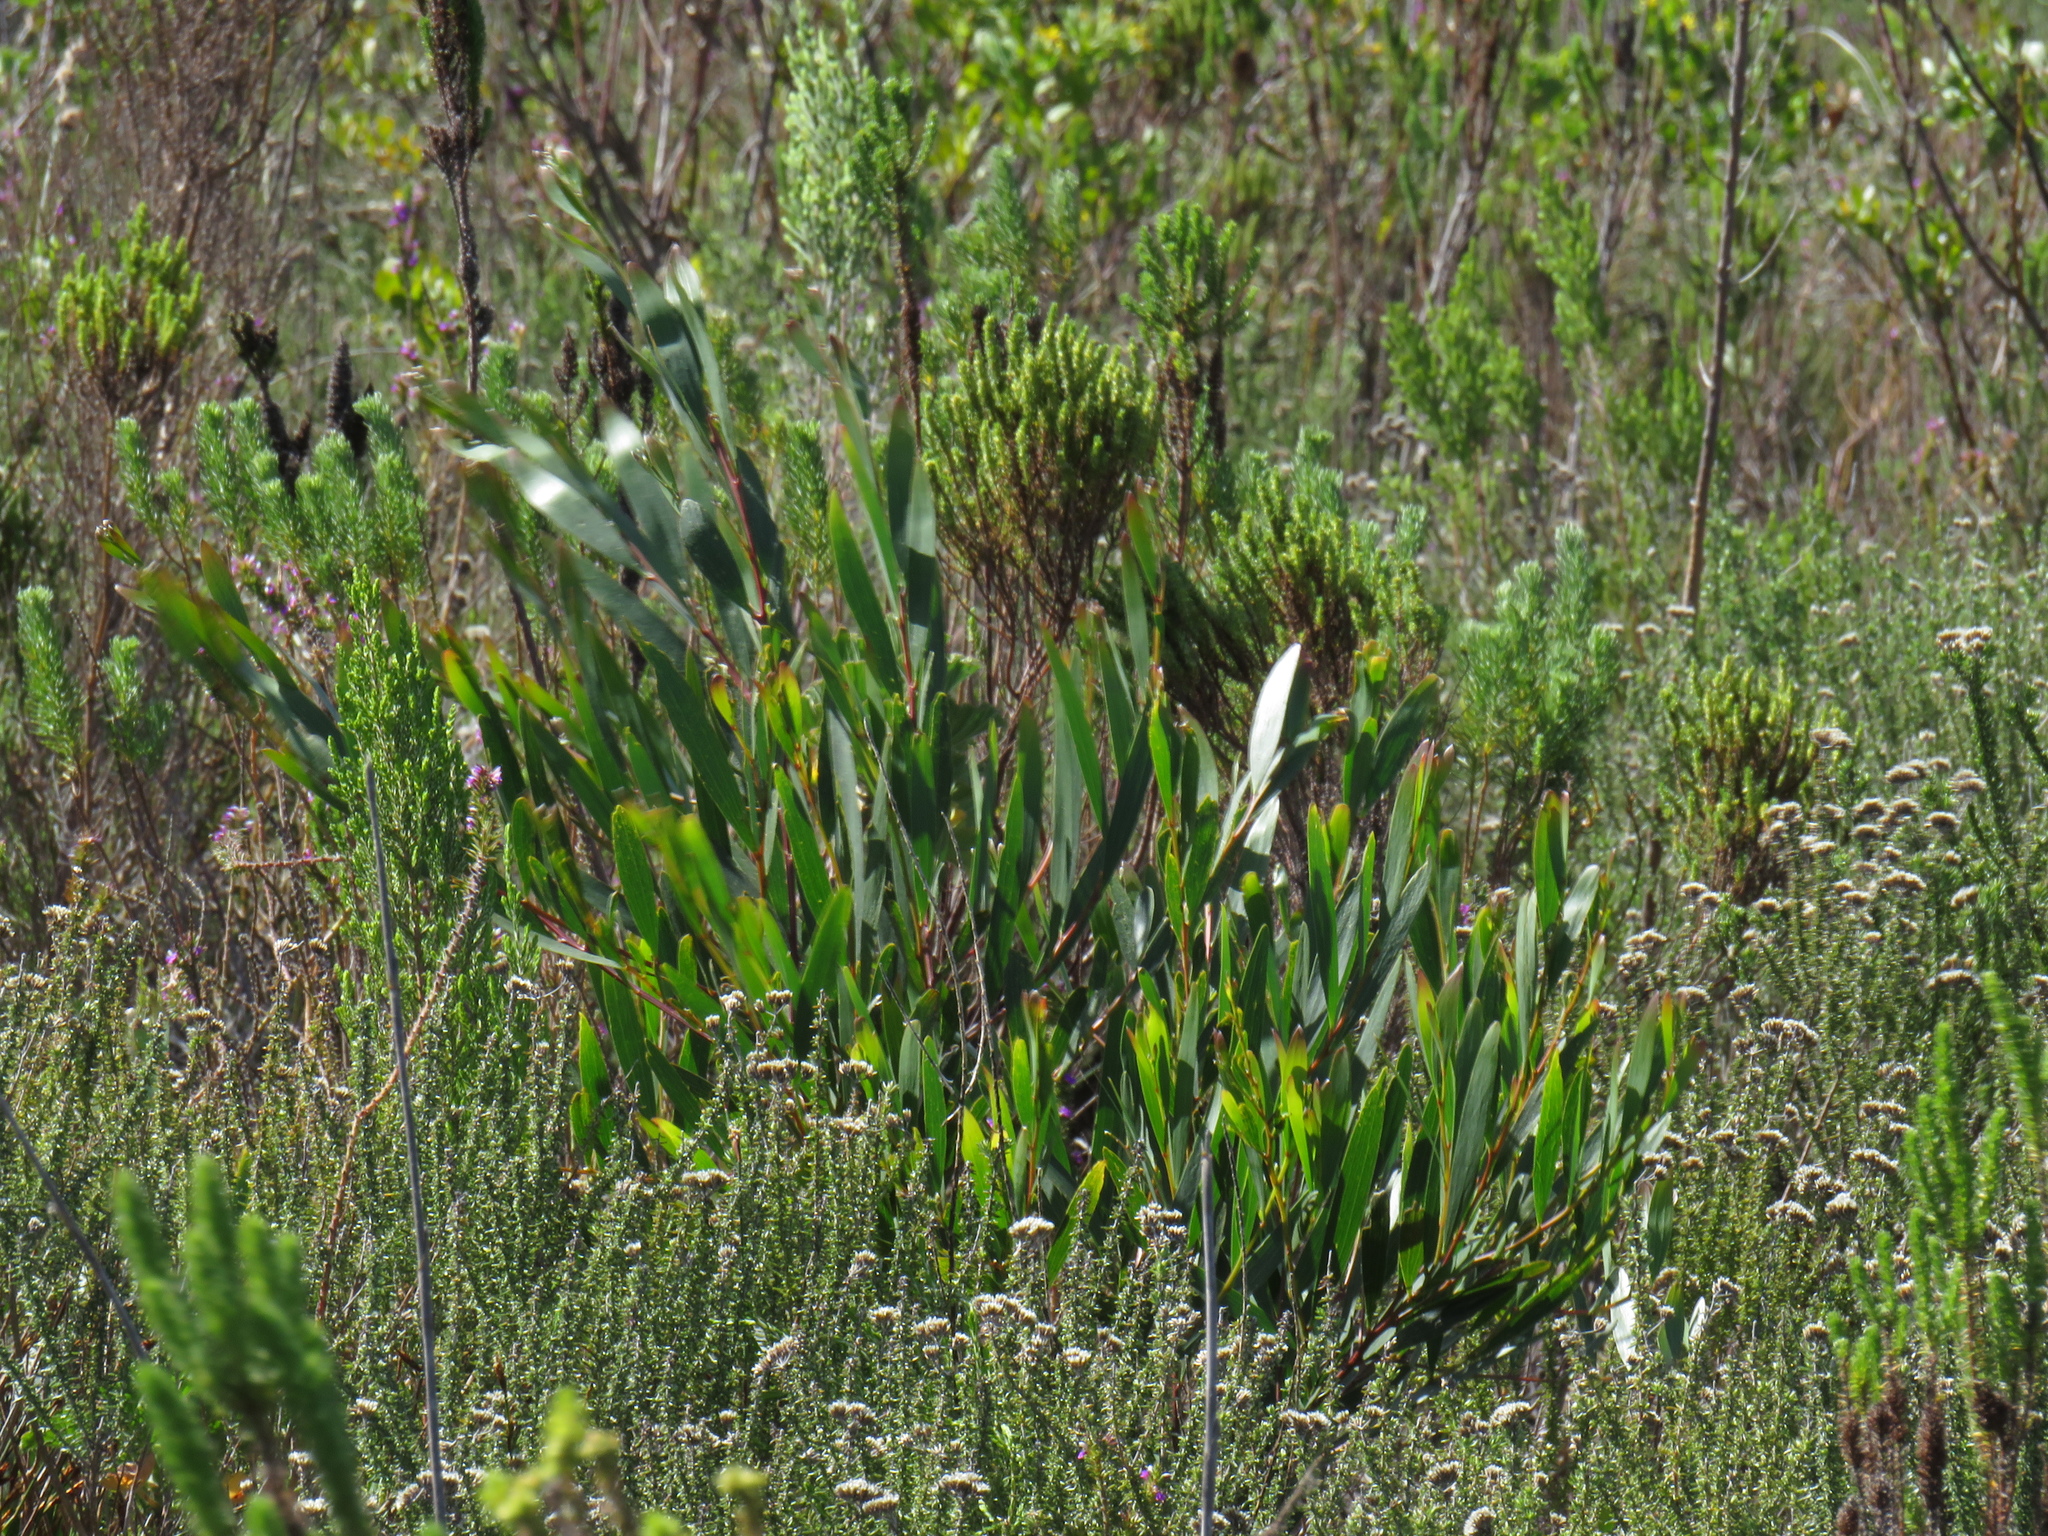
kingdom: Plantae
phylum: Tracheophyta
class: Magnoliopsida
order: Fabales
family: Fabaceae
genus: Acacia
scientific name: Acacia longifolia
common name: Sydney golden wattle
